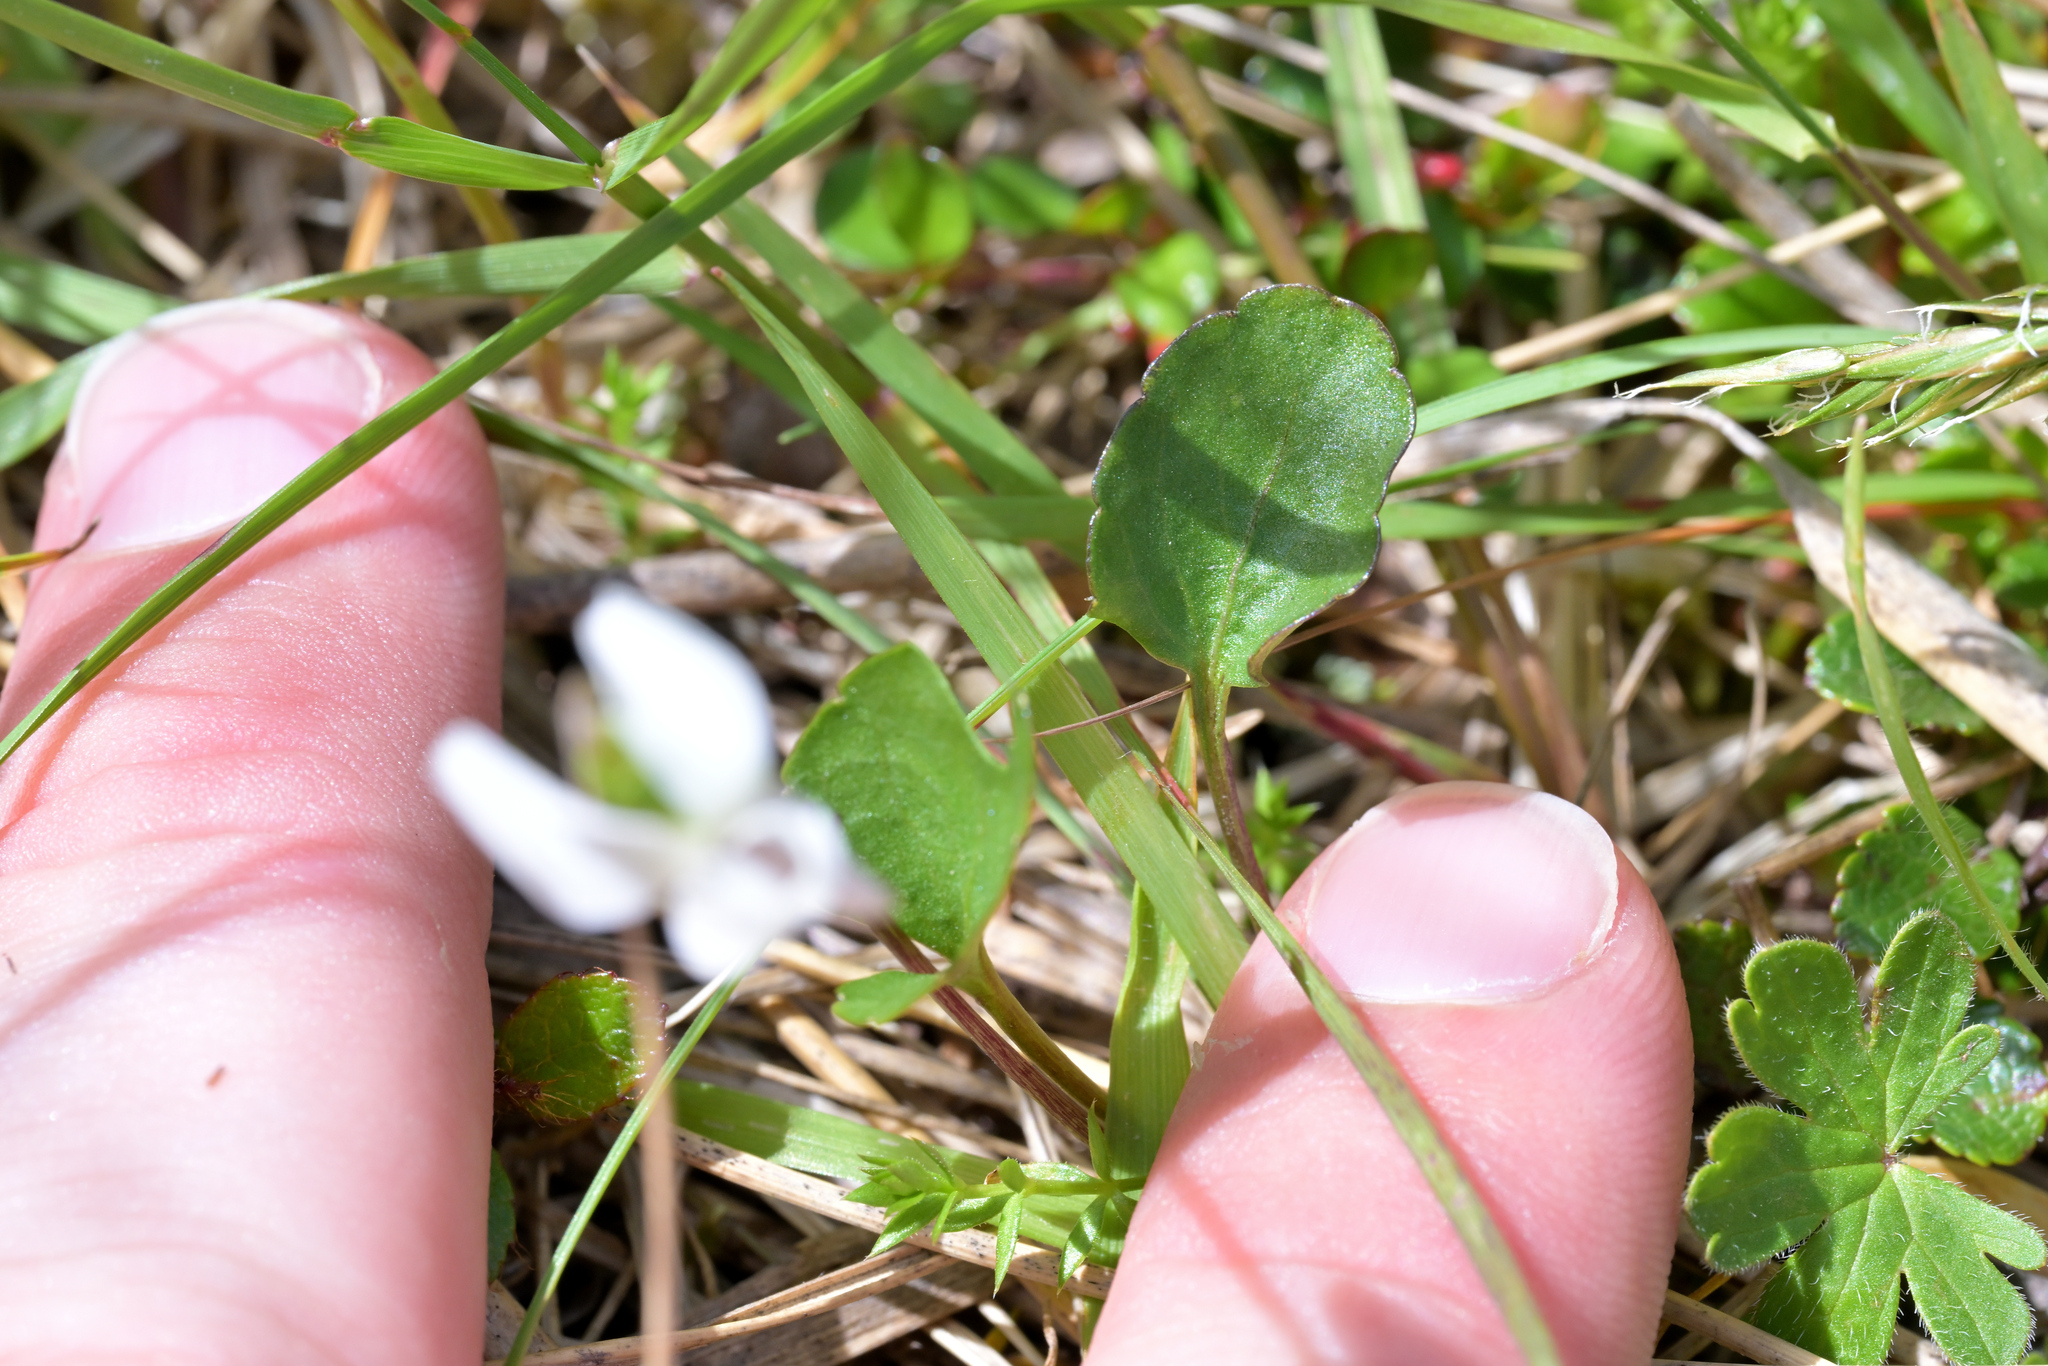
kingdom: Plantae
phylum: Tracheophyta
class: Magnoliopsida
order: Malpighiales
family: Violaceae
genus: Viola
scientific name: Viola cunninghamii
